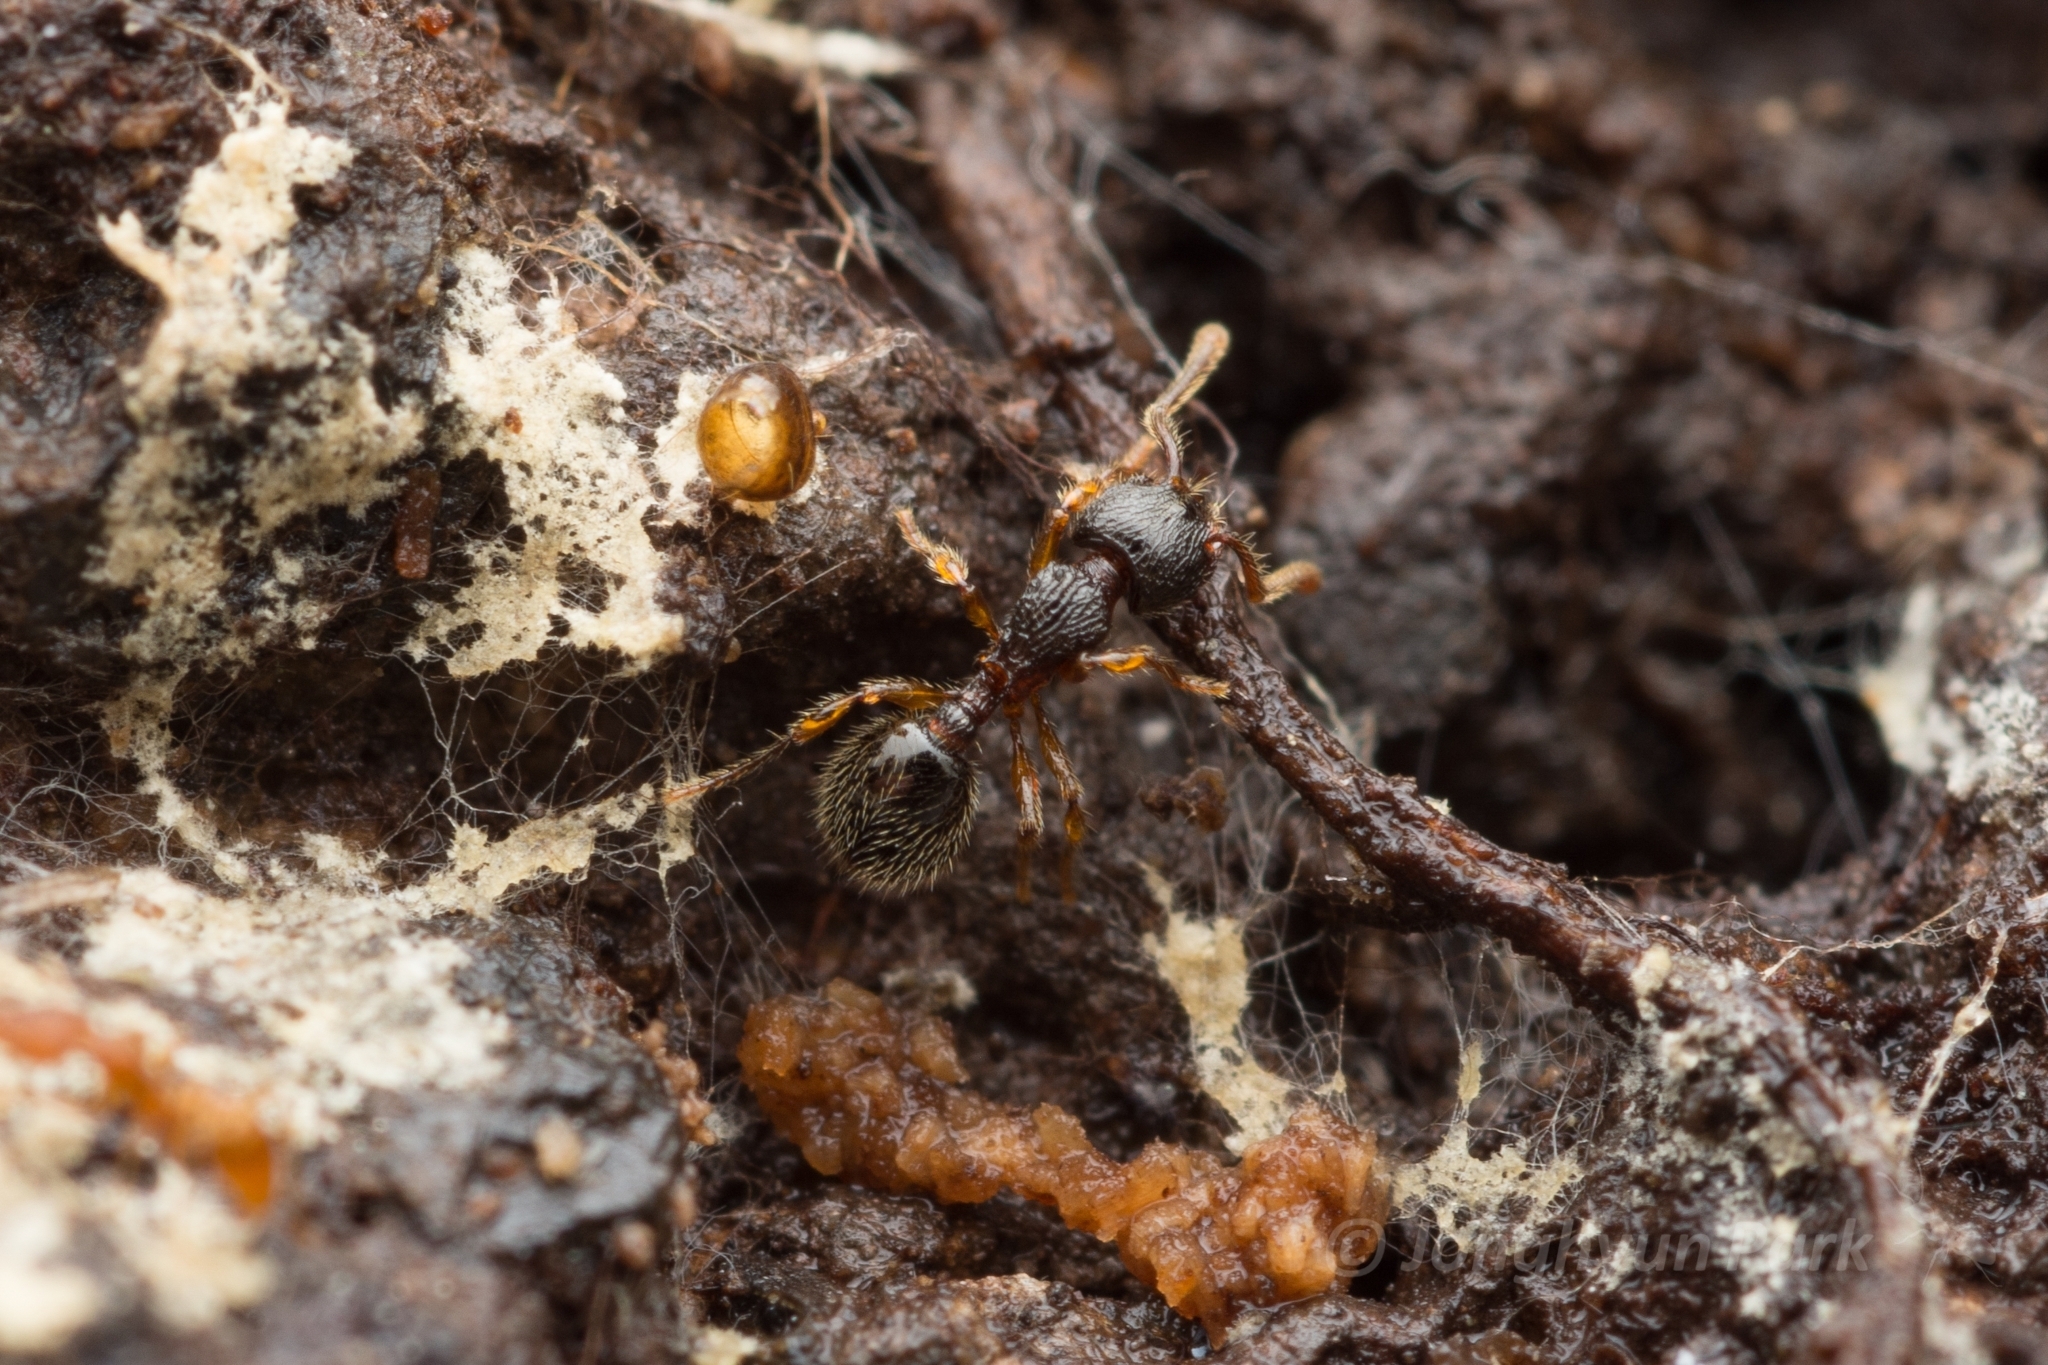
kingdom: Animalia
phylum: Arthropoda
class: Insecta
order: Hymenoptera
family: Formicidae
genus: Myrmecina
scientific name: Myrmecina nipponica
